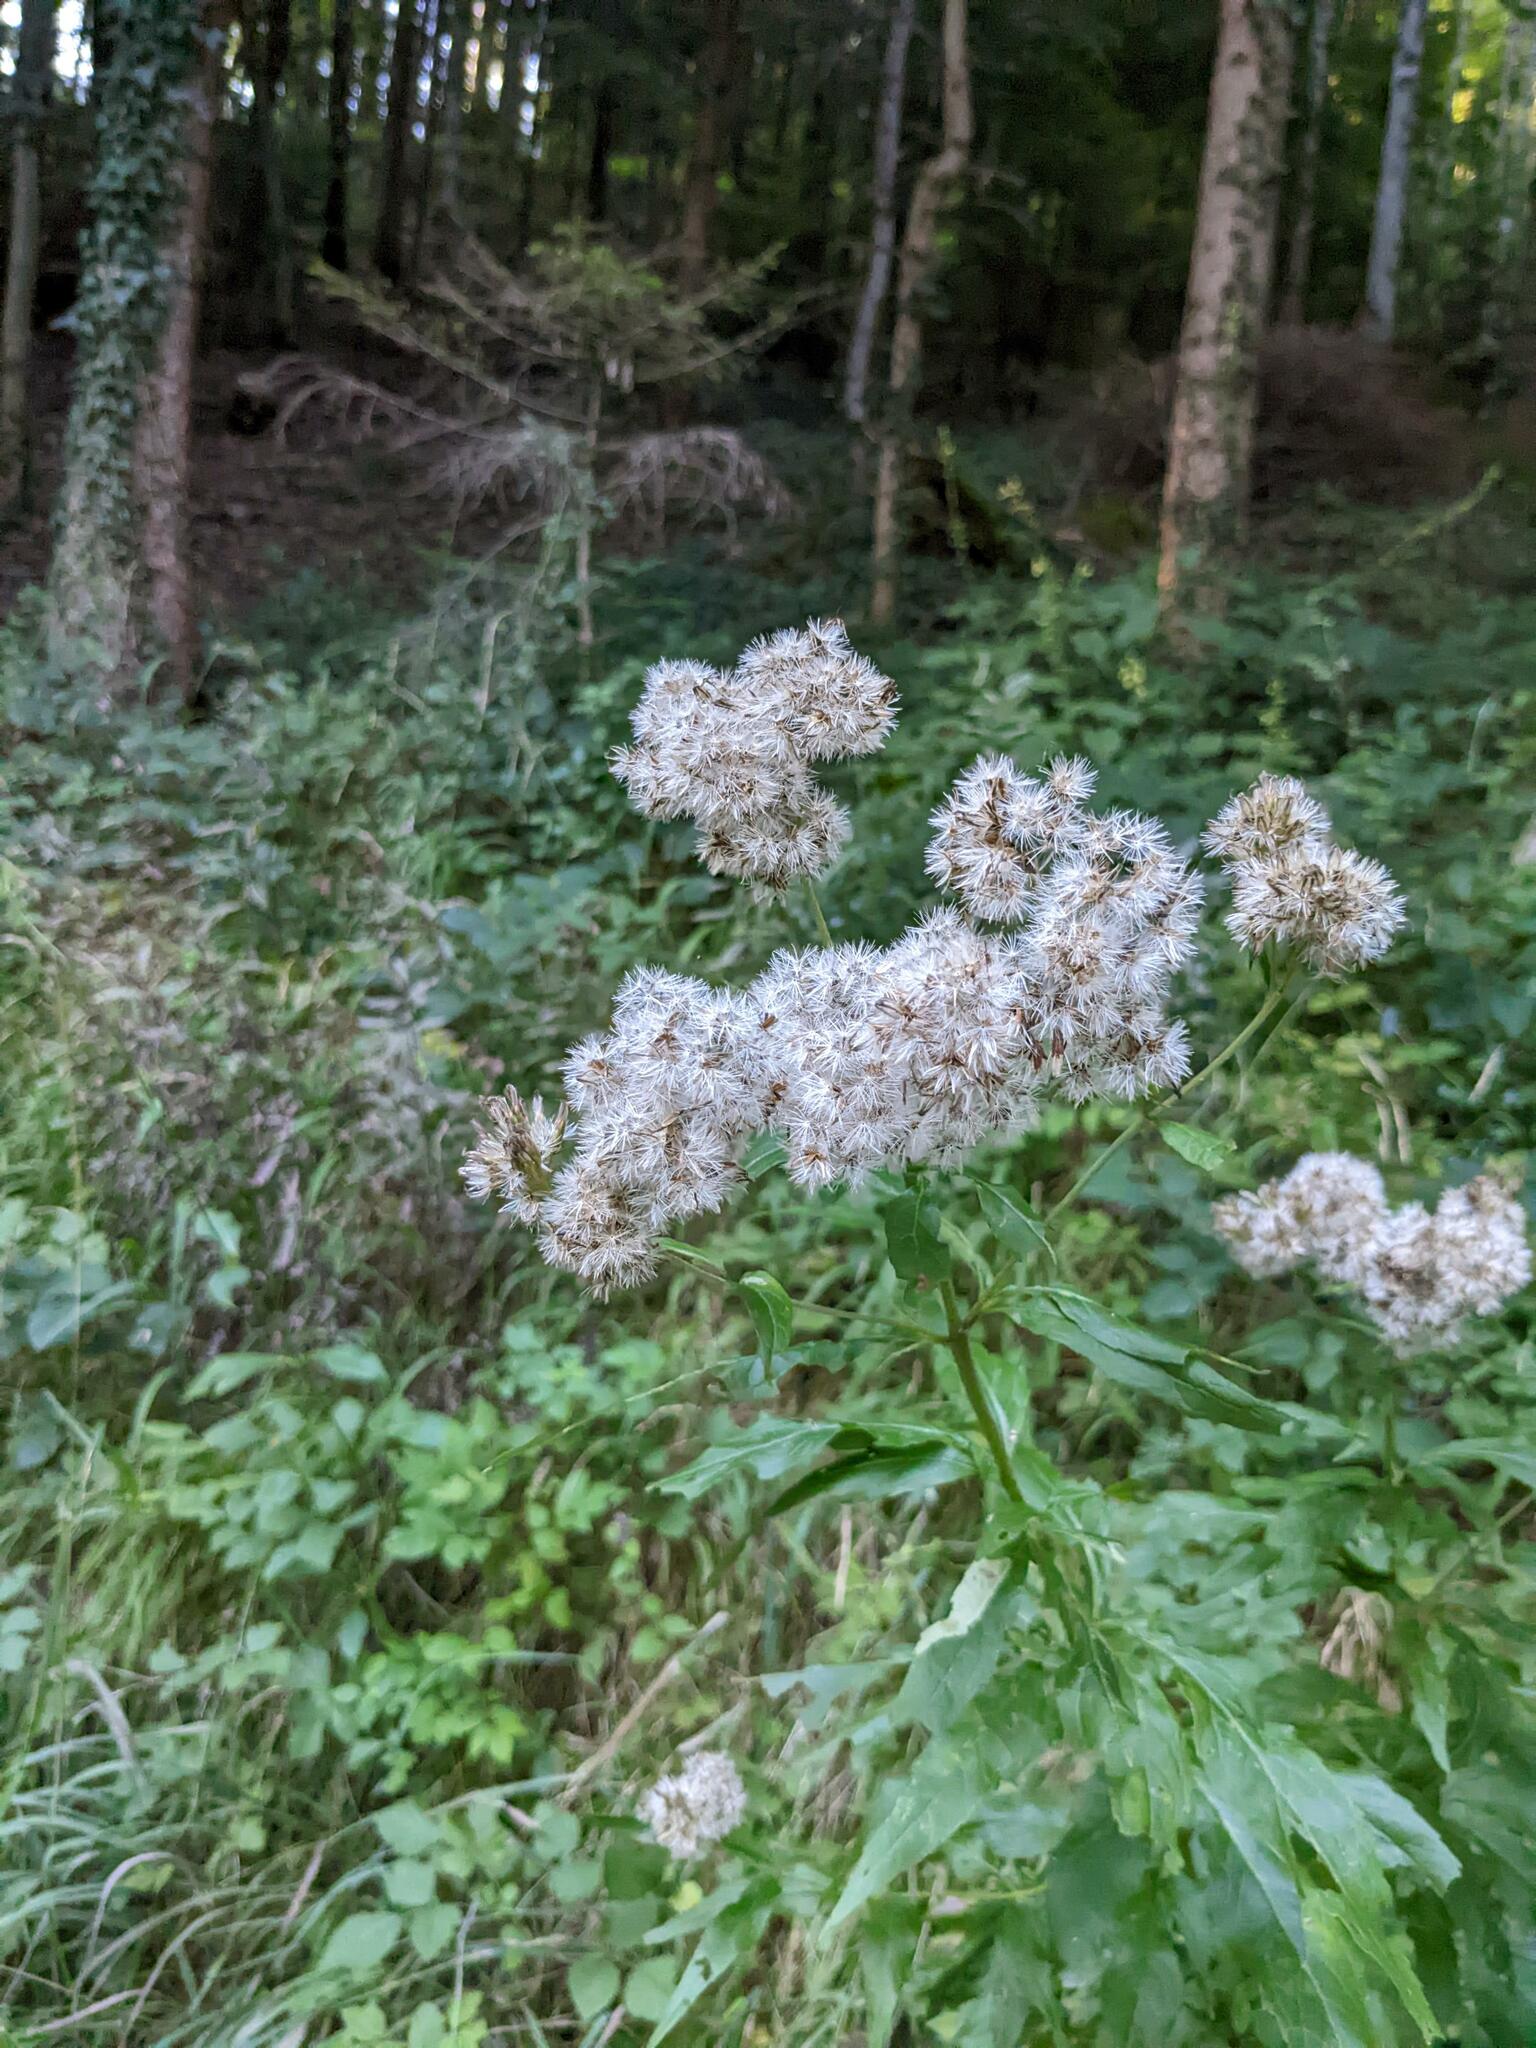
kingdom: Plantae
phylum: Tracheophyta
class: Magnoliopsida
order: Asterales
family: Asteraceae
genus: Eupatorium
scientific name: Eupatorium cannabinum
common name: Hemp-agrimony
